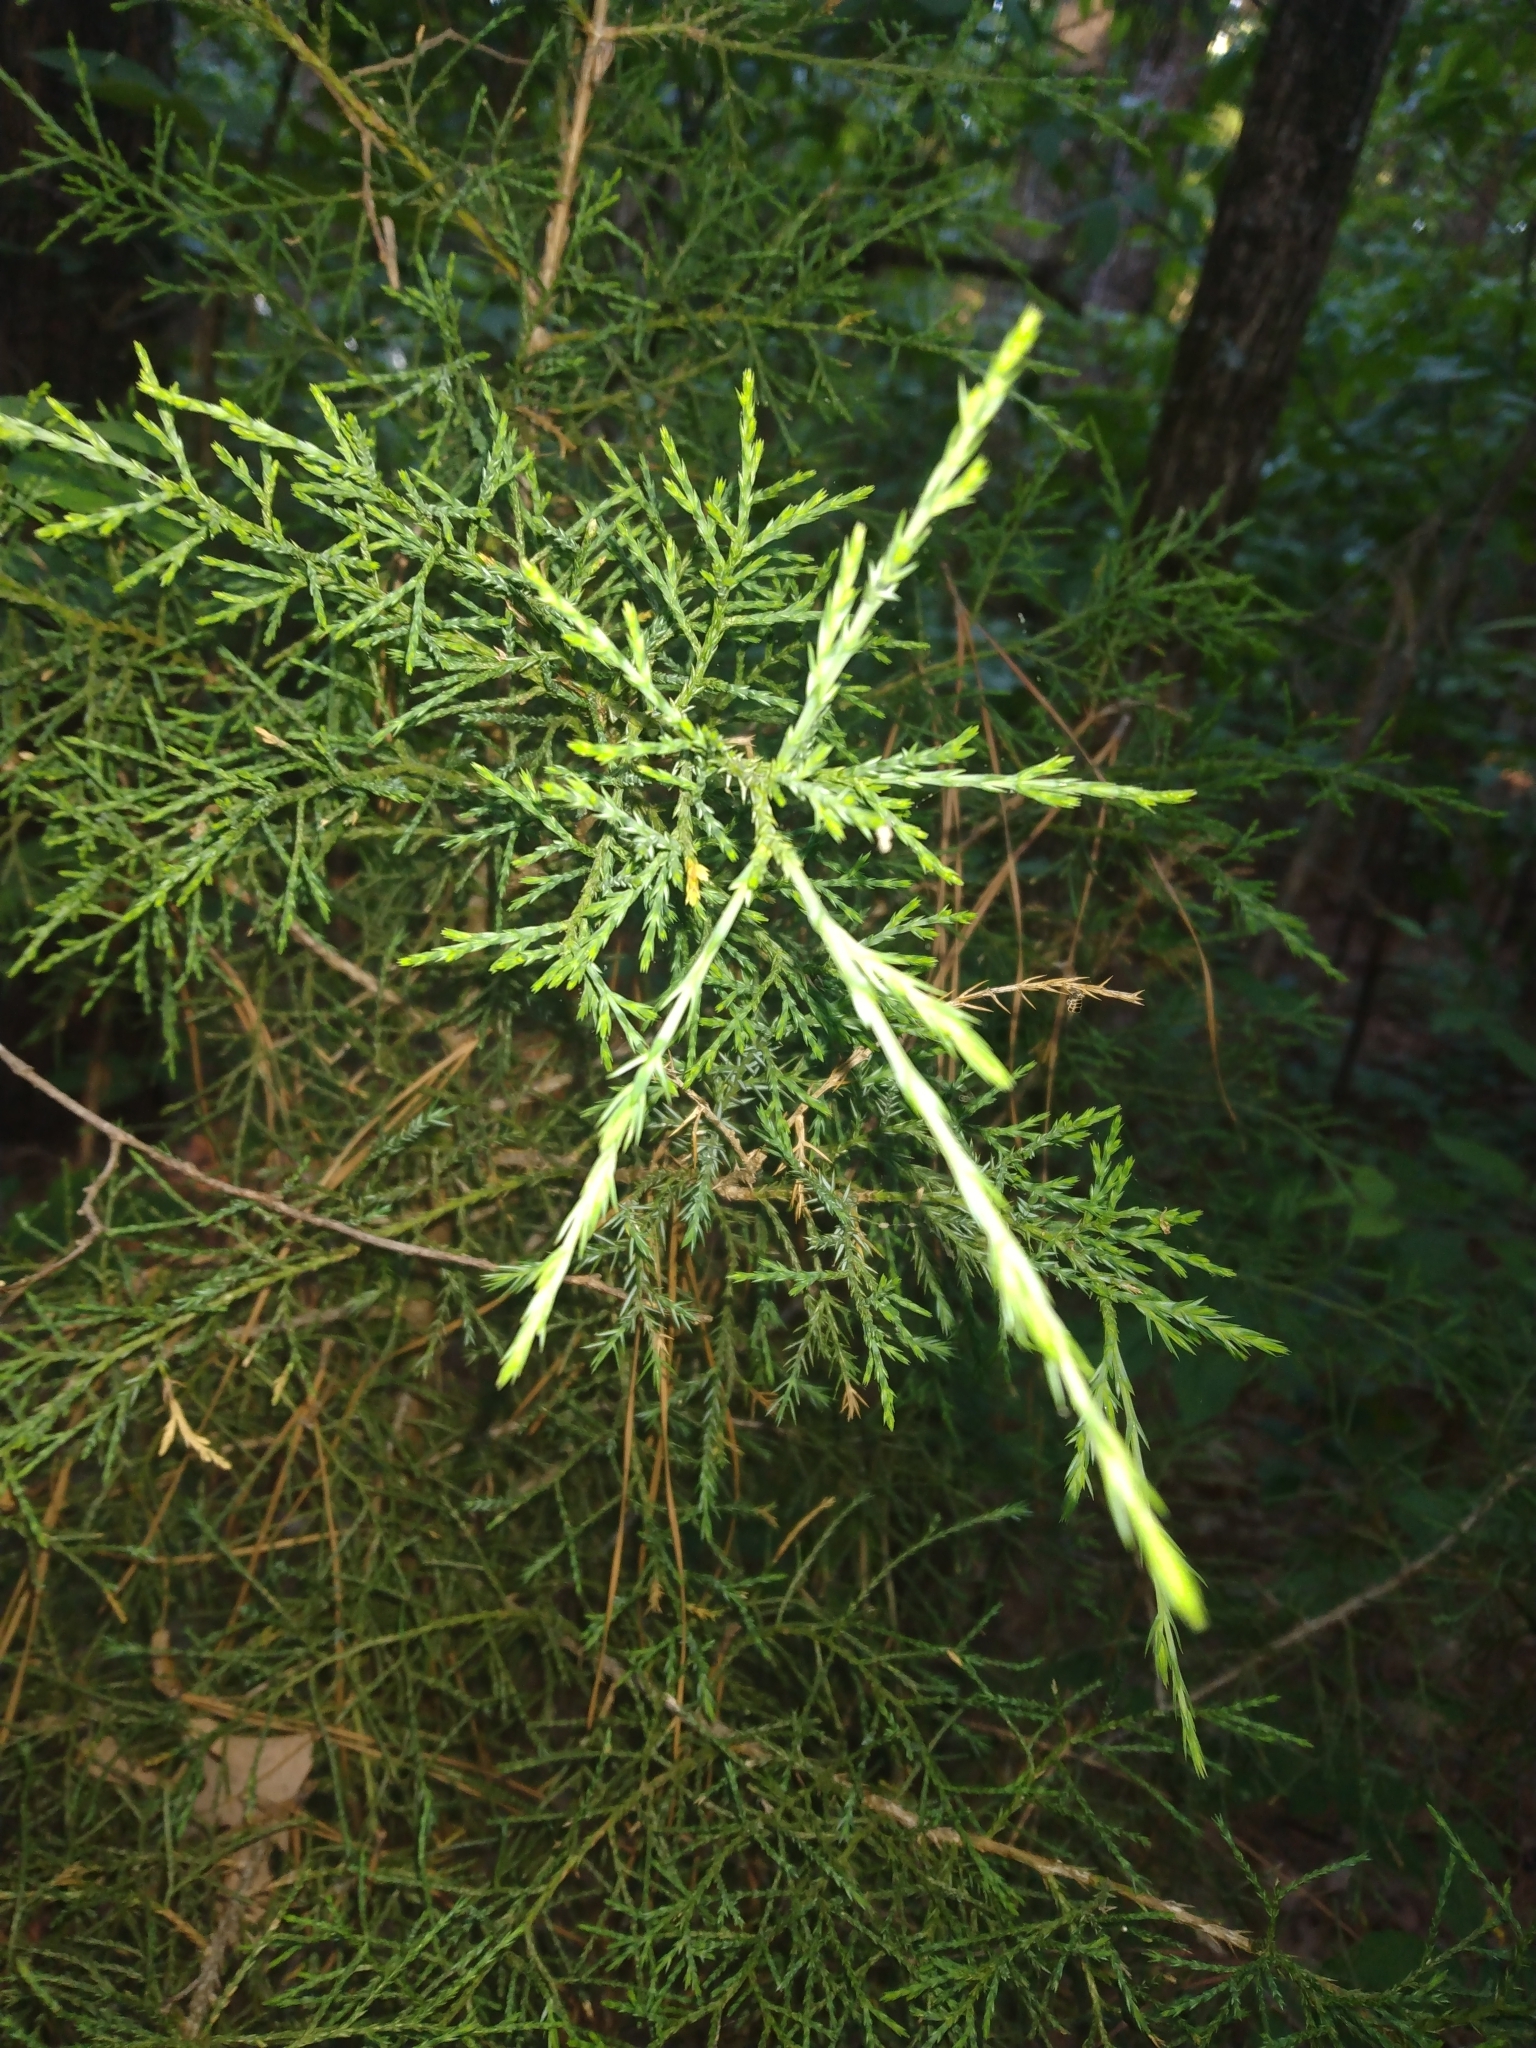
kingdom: Plantae
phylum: Tracheophyta
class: Pinopsida
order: Pinales
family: Cupressaceae
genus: Juniperus
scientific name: Juniperus virginiana
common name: Red juniper
